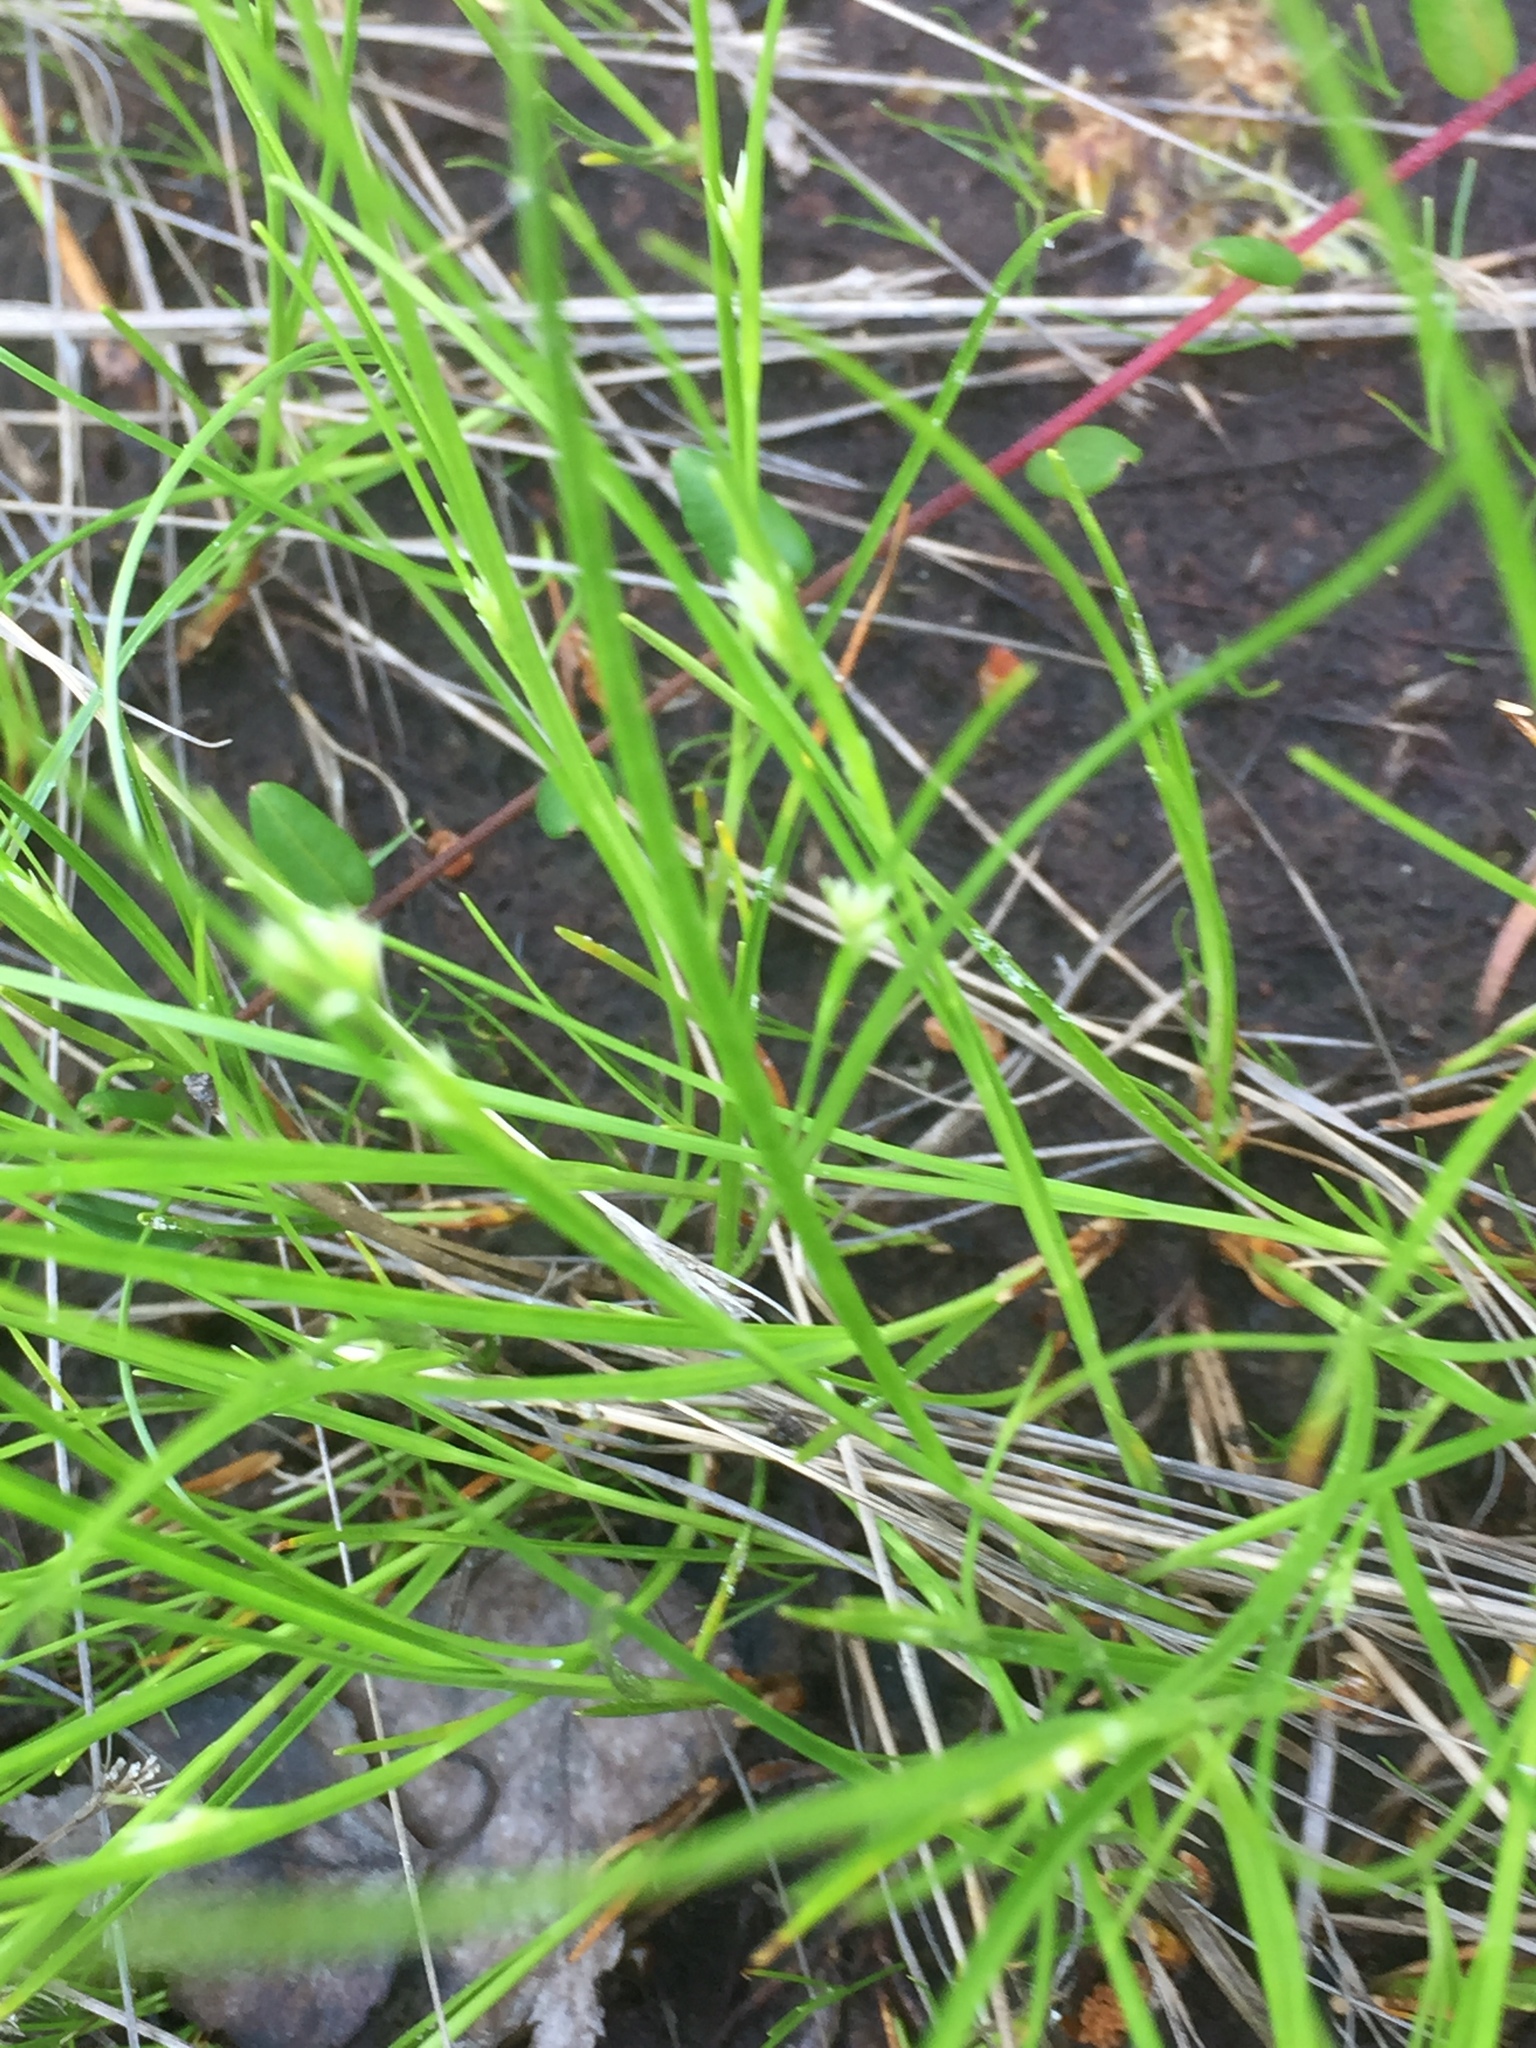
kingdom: Plantae
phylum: Tracheophyta
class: Liliopsida
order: Poales
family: Cyperaceae
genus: Rhynchospora
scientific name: Rhynchospora alba
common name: White beak-sedge
